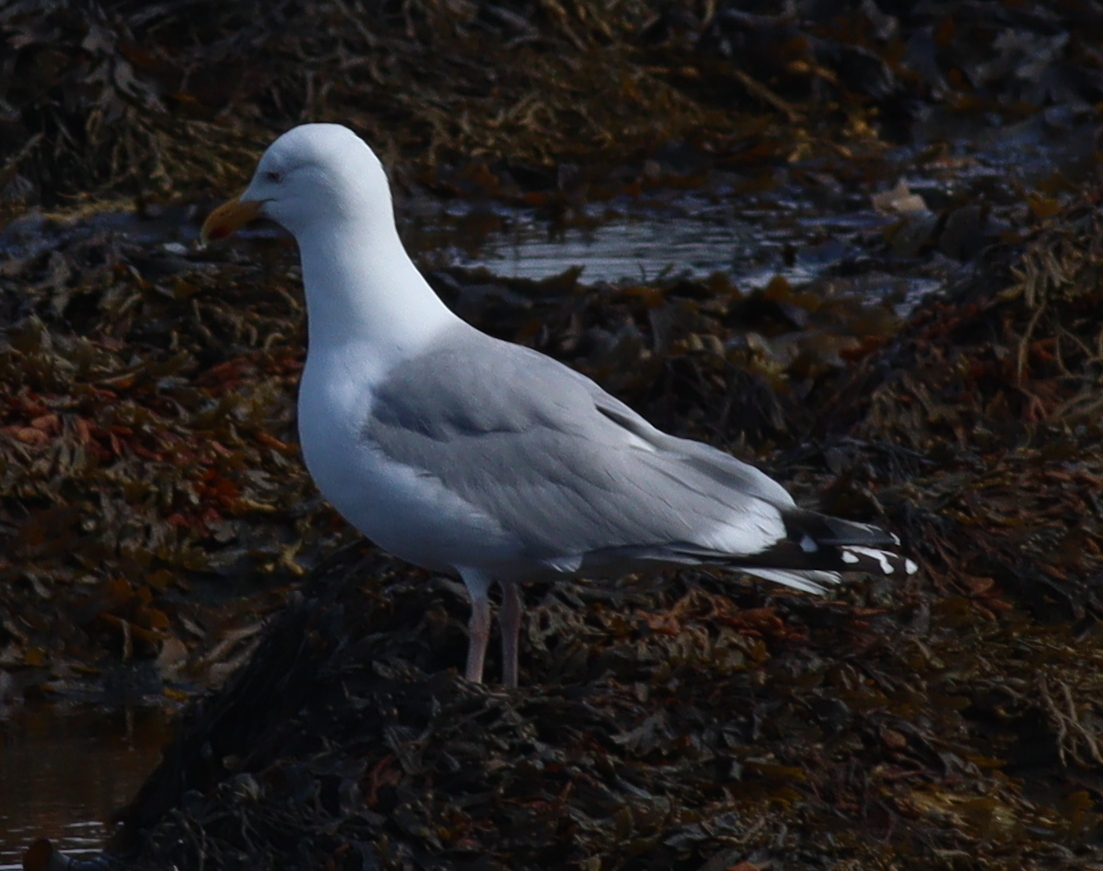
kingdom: Animalia
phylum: Chordata
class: Aves
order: Charadriiformes
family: Laridae
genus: Larus
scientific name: Larus argentatus
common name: Herring gull
